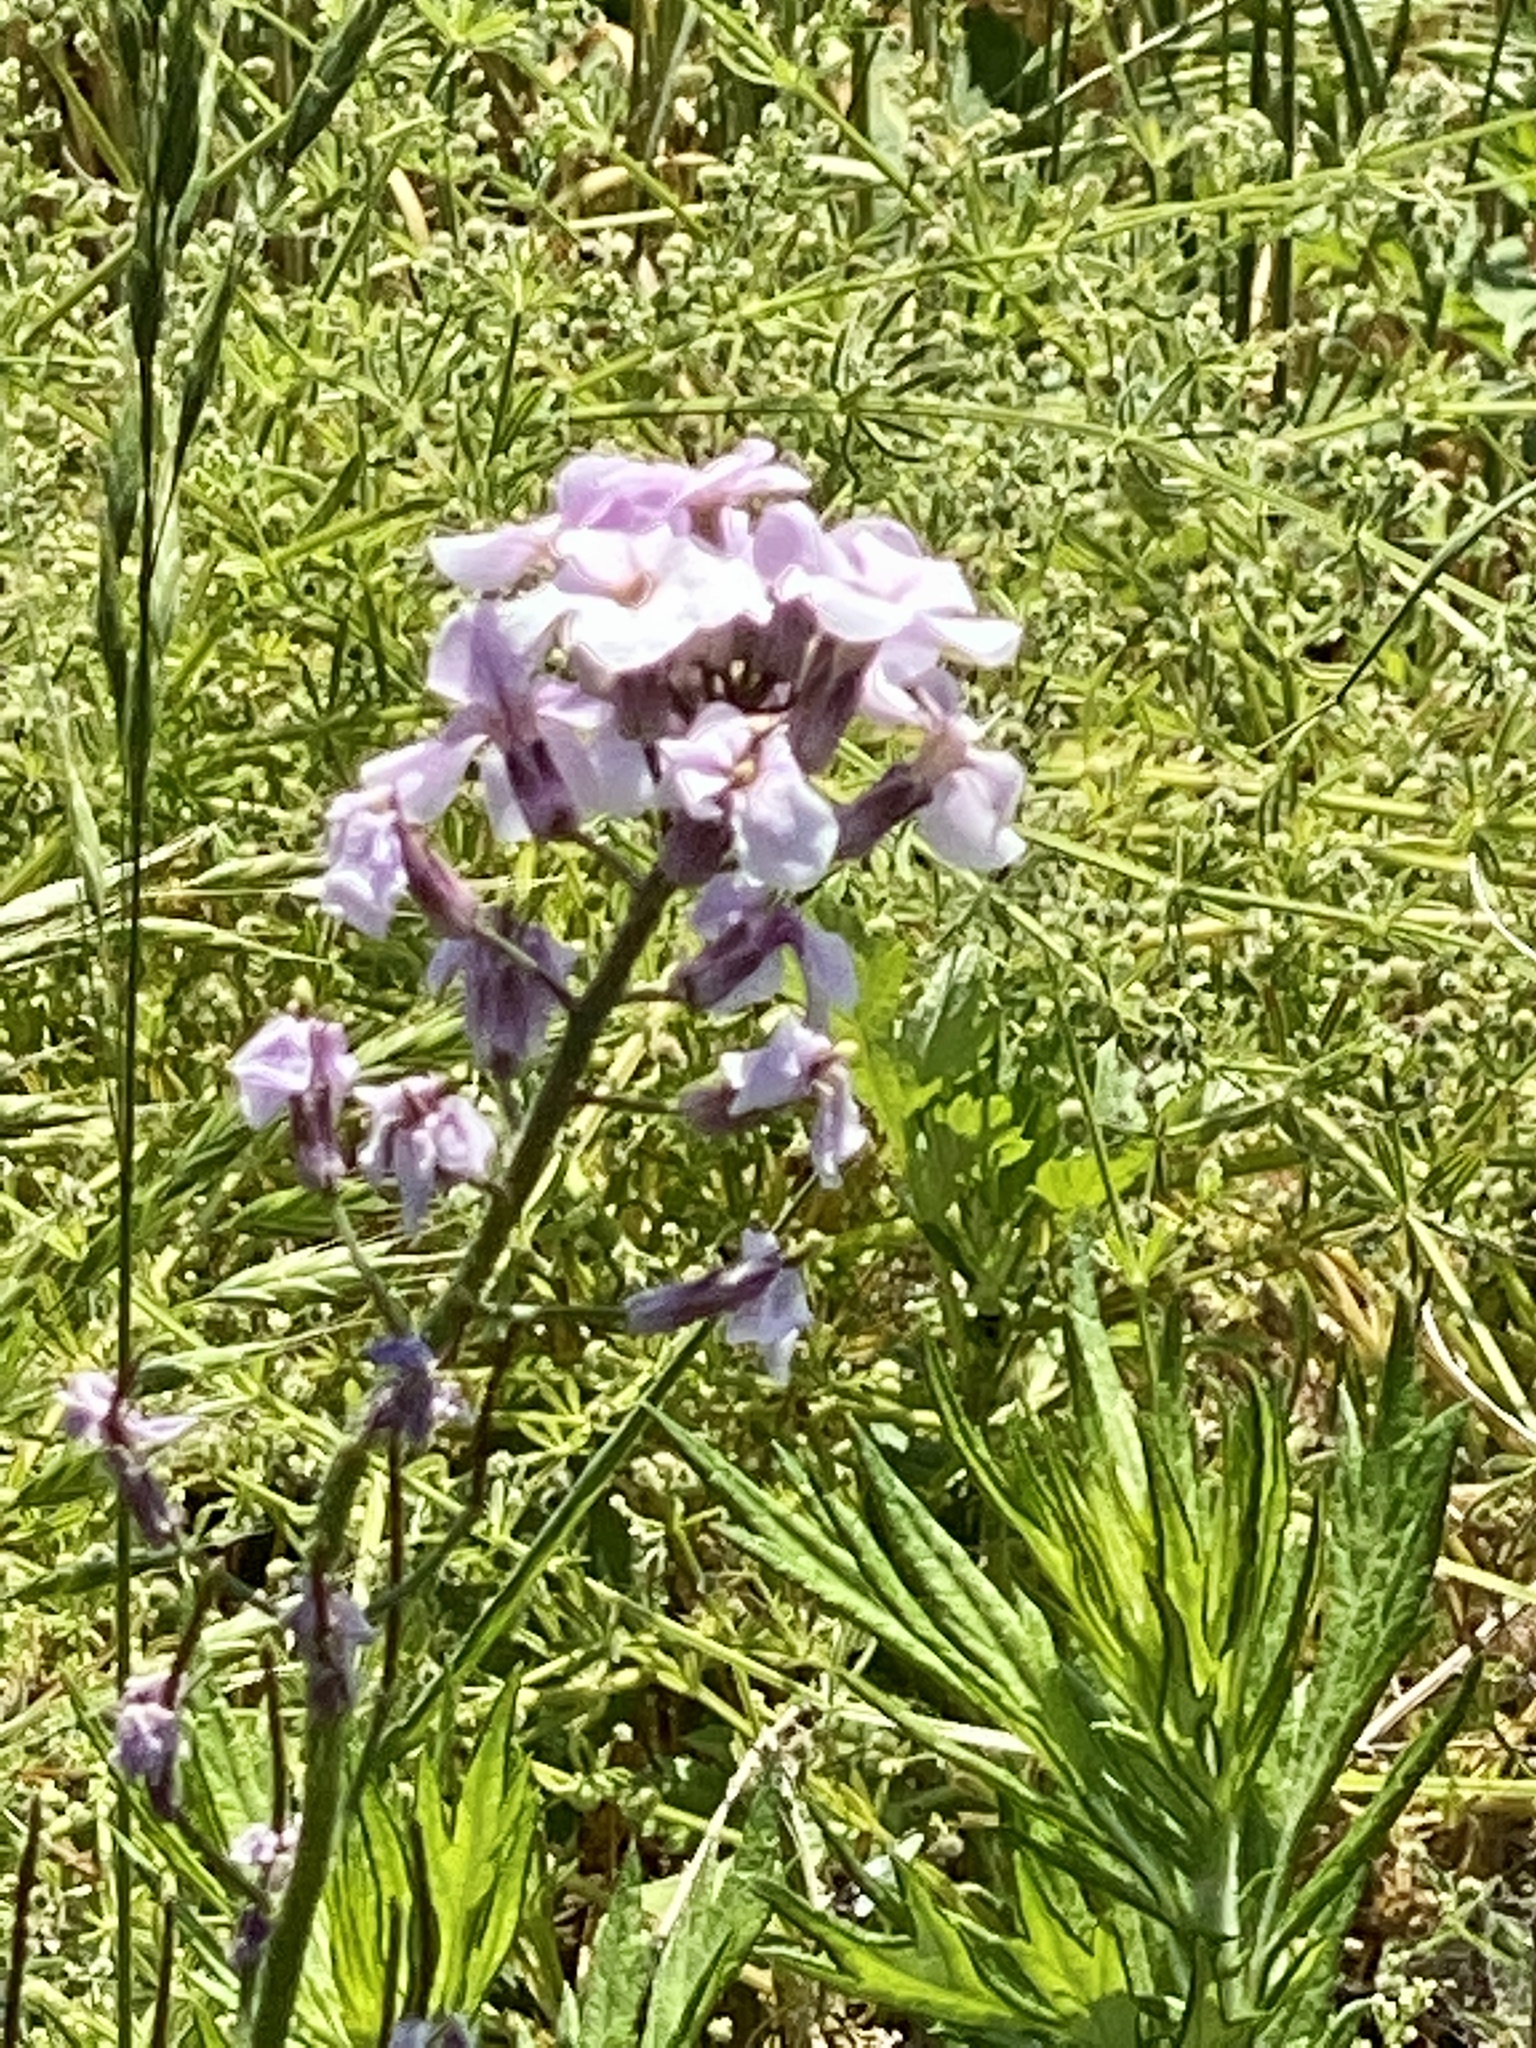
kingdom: Plantae
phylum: Tracheophyta
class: Magnoliopsida
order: Brassicales
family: Brassicaceae
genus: Hesperis
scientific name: Hesperis matronalis
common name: Dame's-violet
